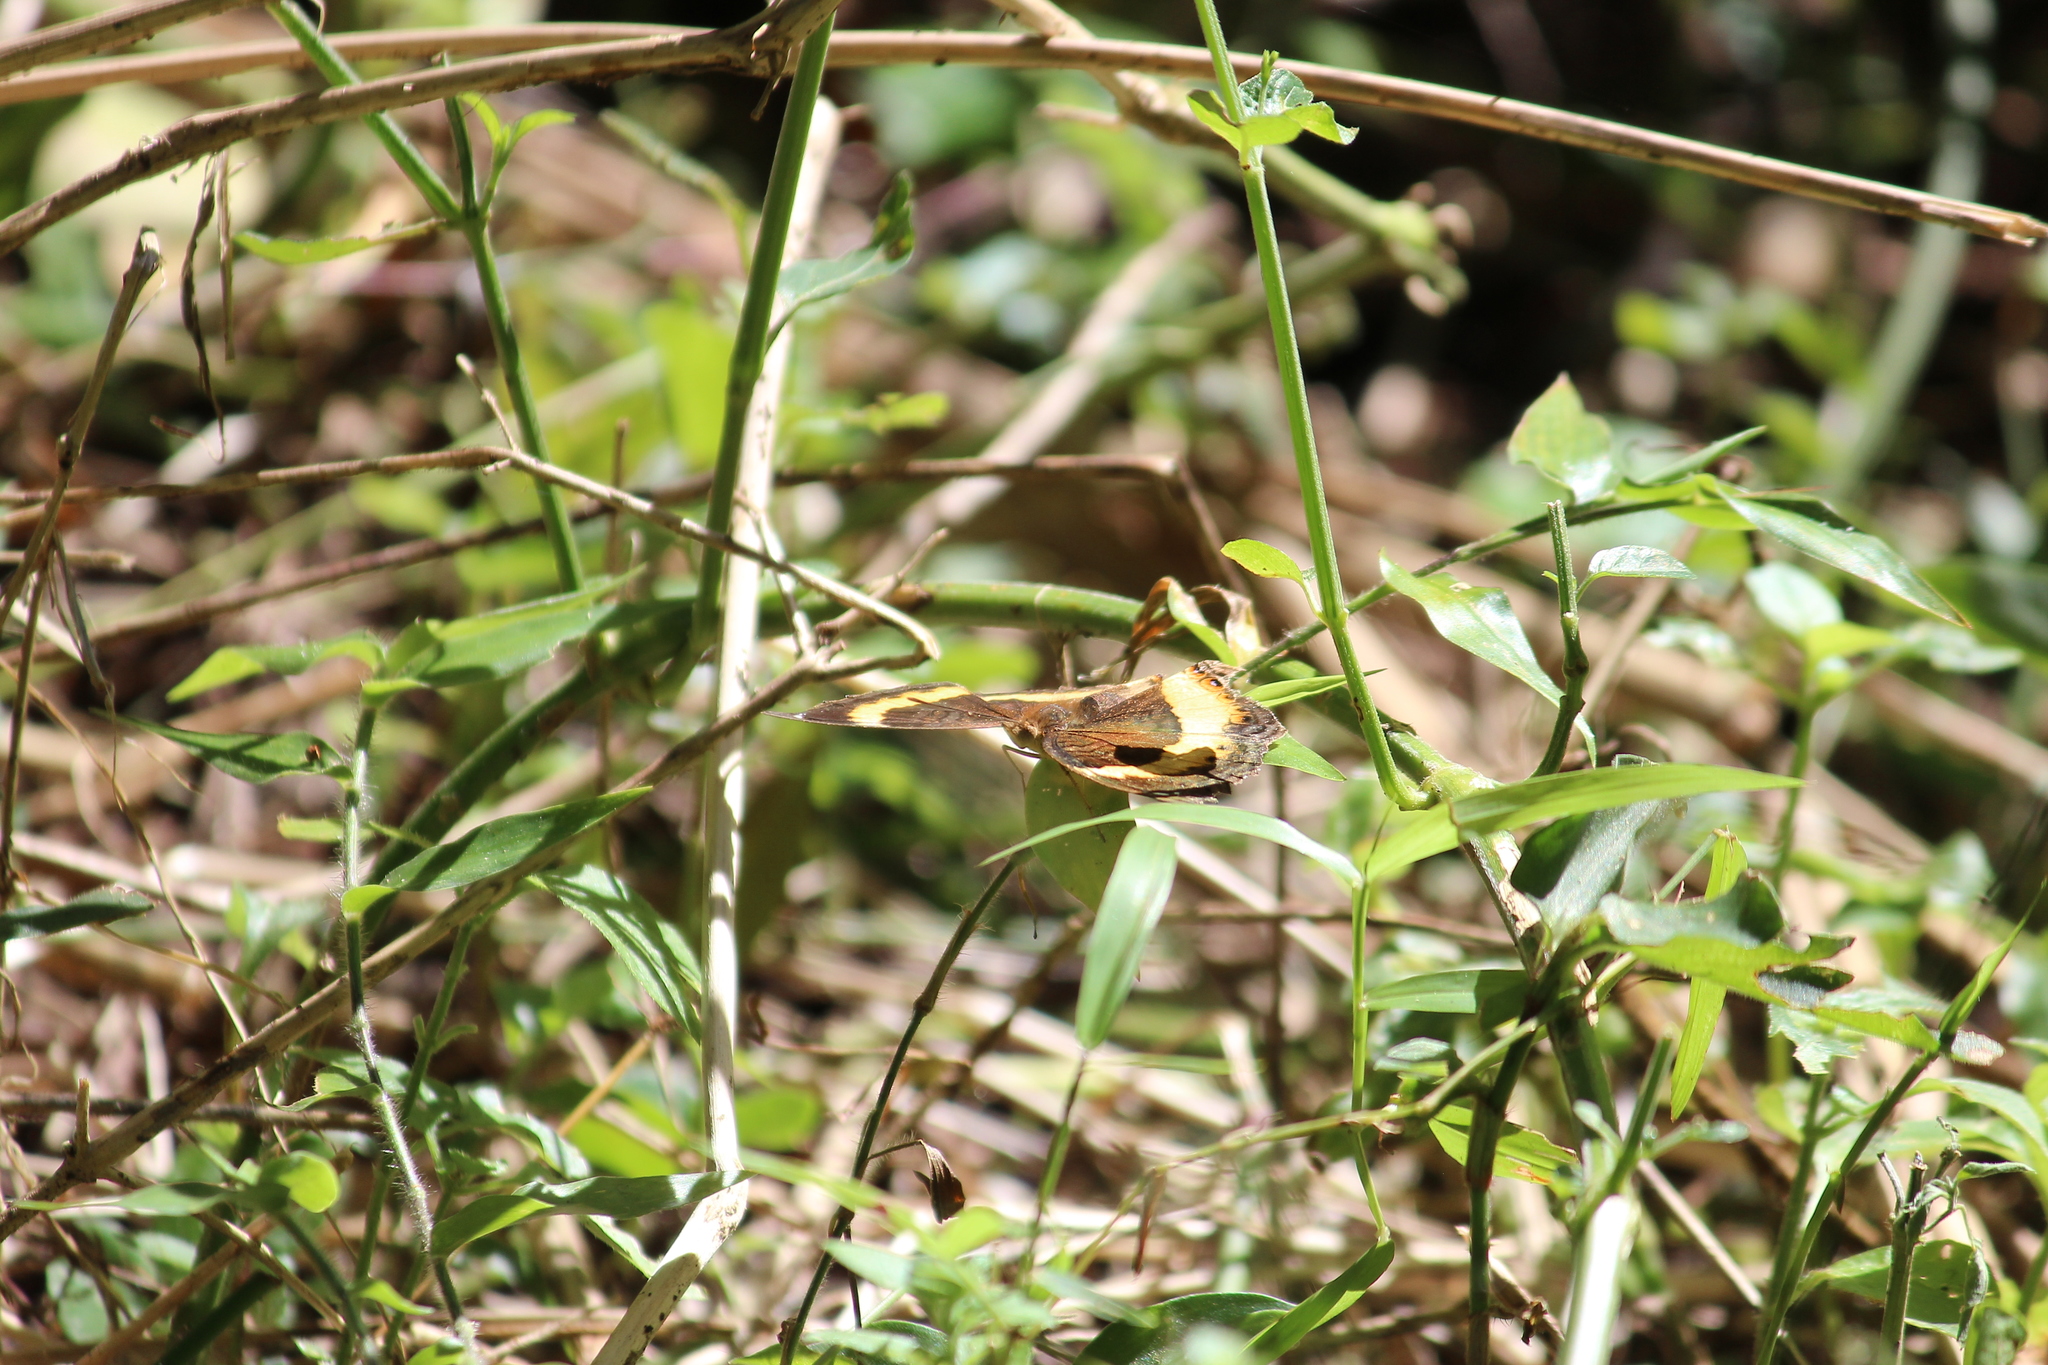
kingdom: Animalia
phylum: Arthropoda
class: Insecta
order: Lepidoptera
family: Nymphalidae
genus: Junonia
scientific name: Junonia terea
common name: Soldier pansy
